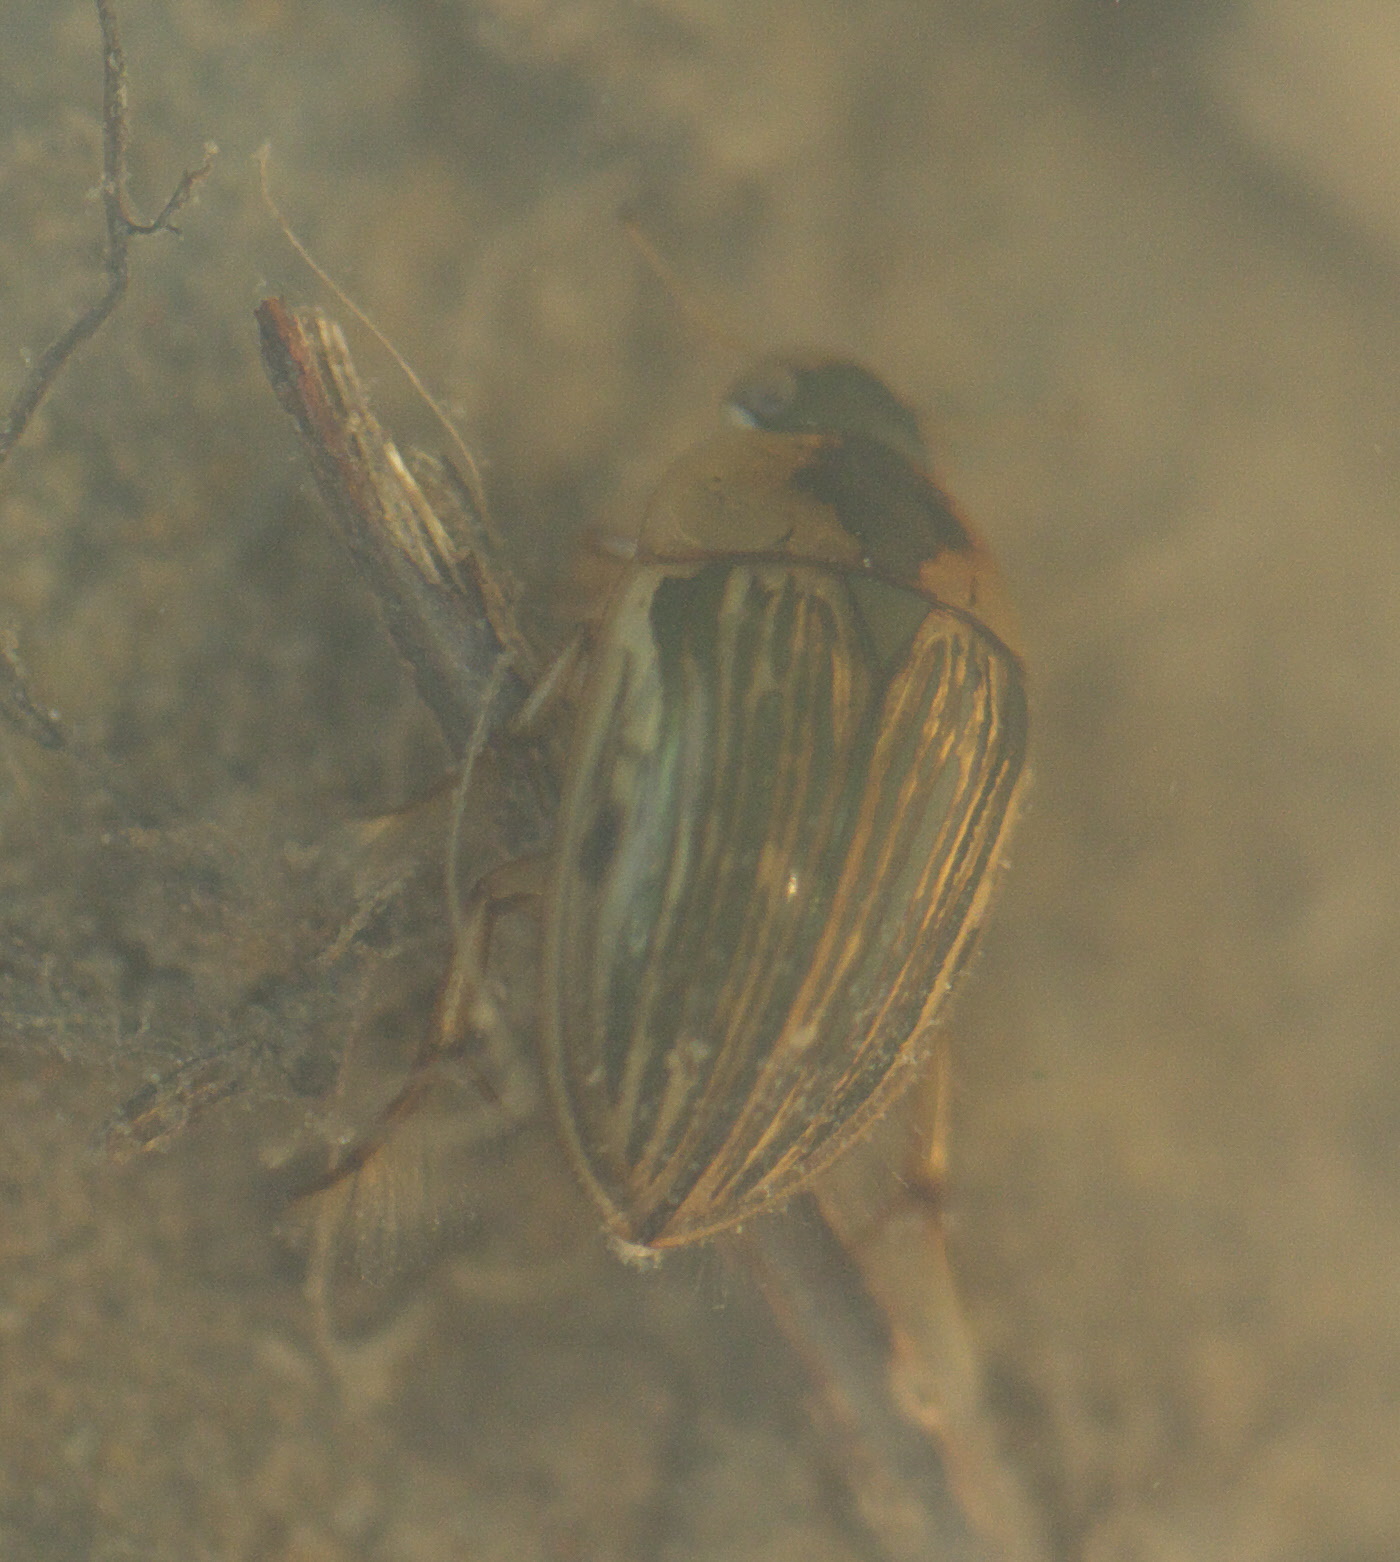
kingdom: Animalia
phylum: Arthropoda
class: Insecta
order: Coleoptera
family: Hydrophilidae
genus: Tropisternus
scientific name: Tropisternus collaris
